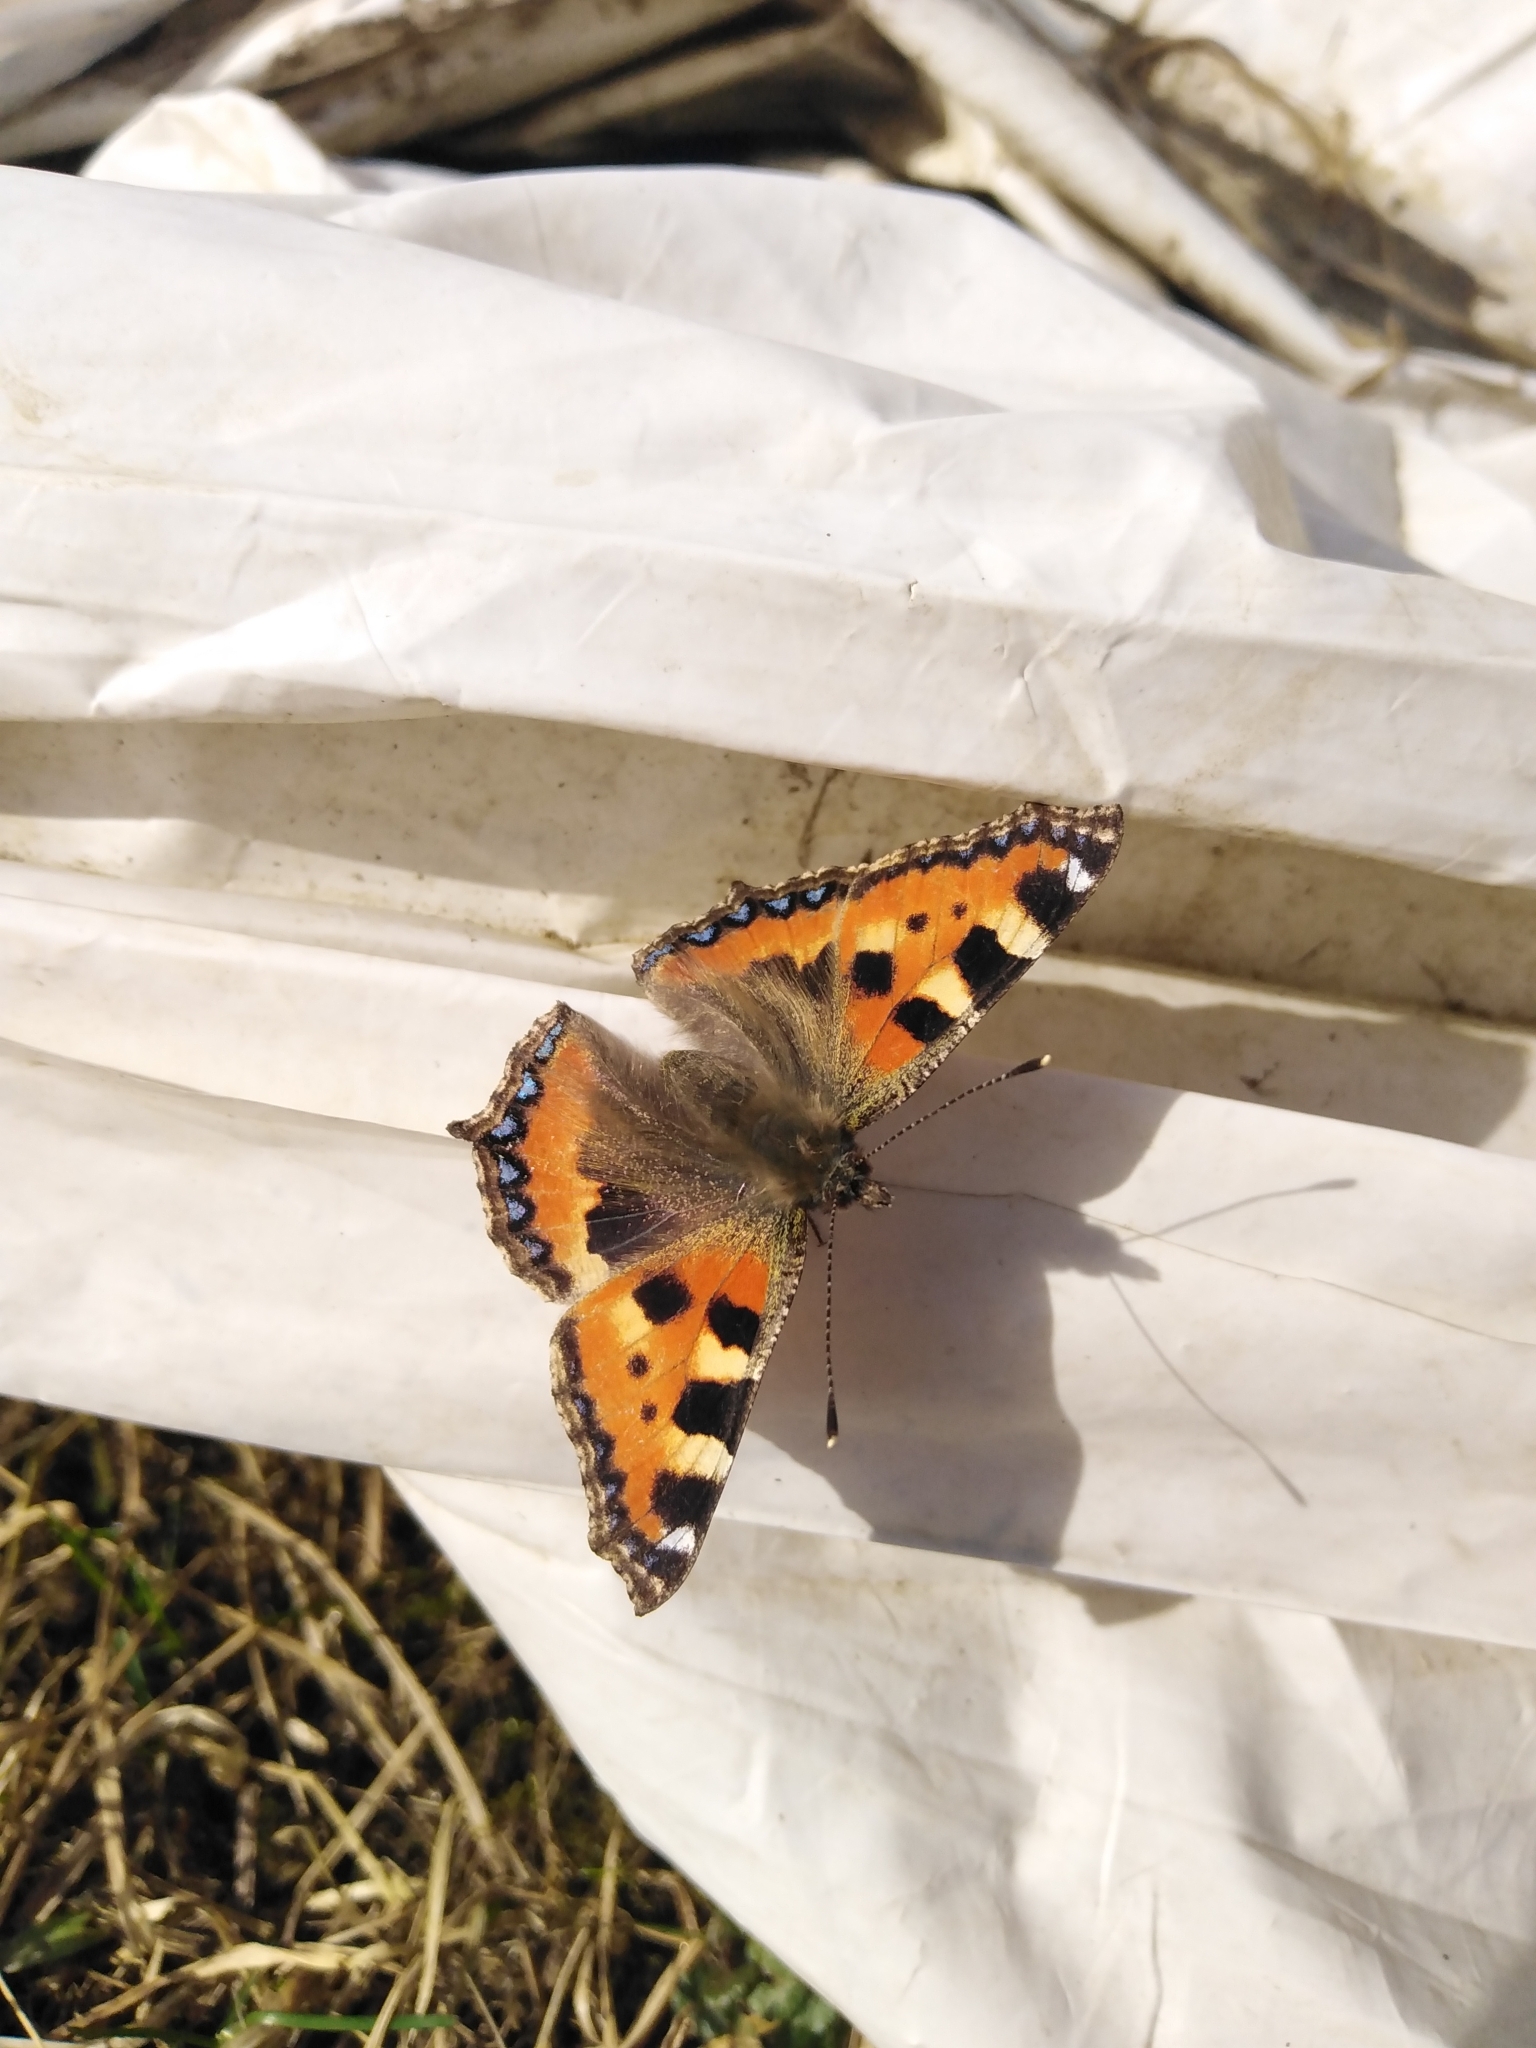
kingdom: Animalia
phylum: Arthropoda
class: Insecta
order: Lepidoptera
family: Nymphalidae
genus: Aglais
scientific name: Aglais urticae
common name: Small tortoiseshell
